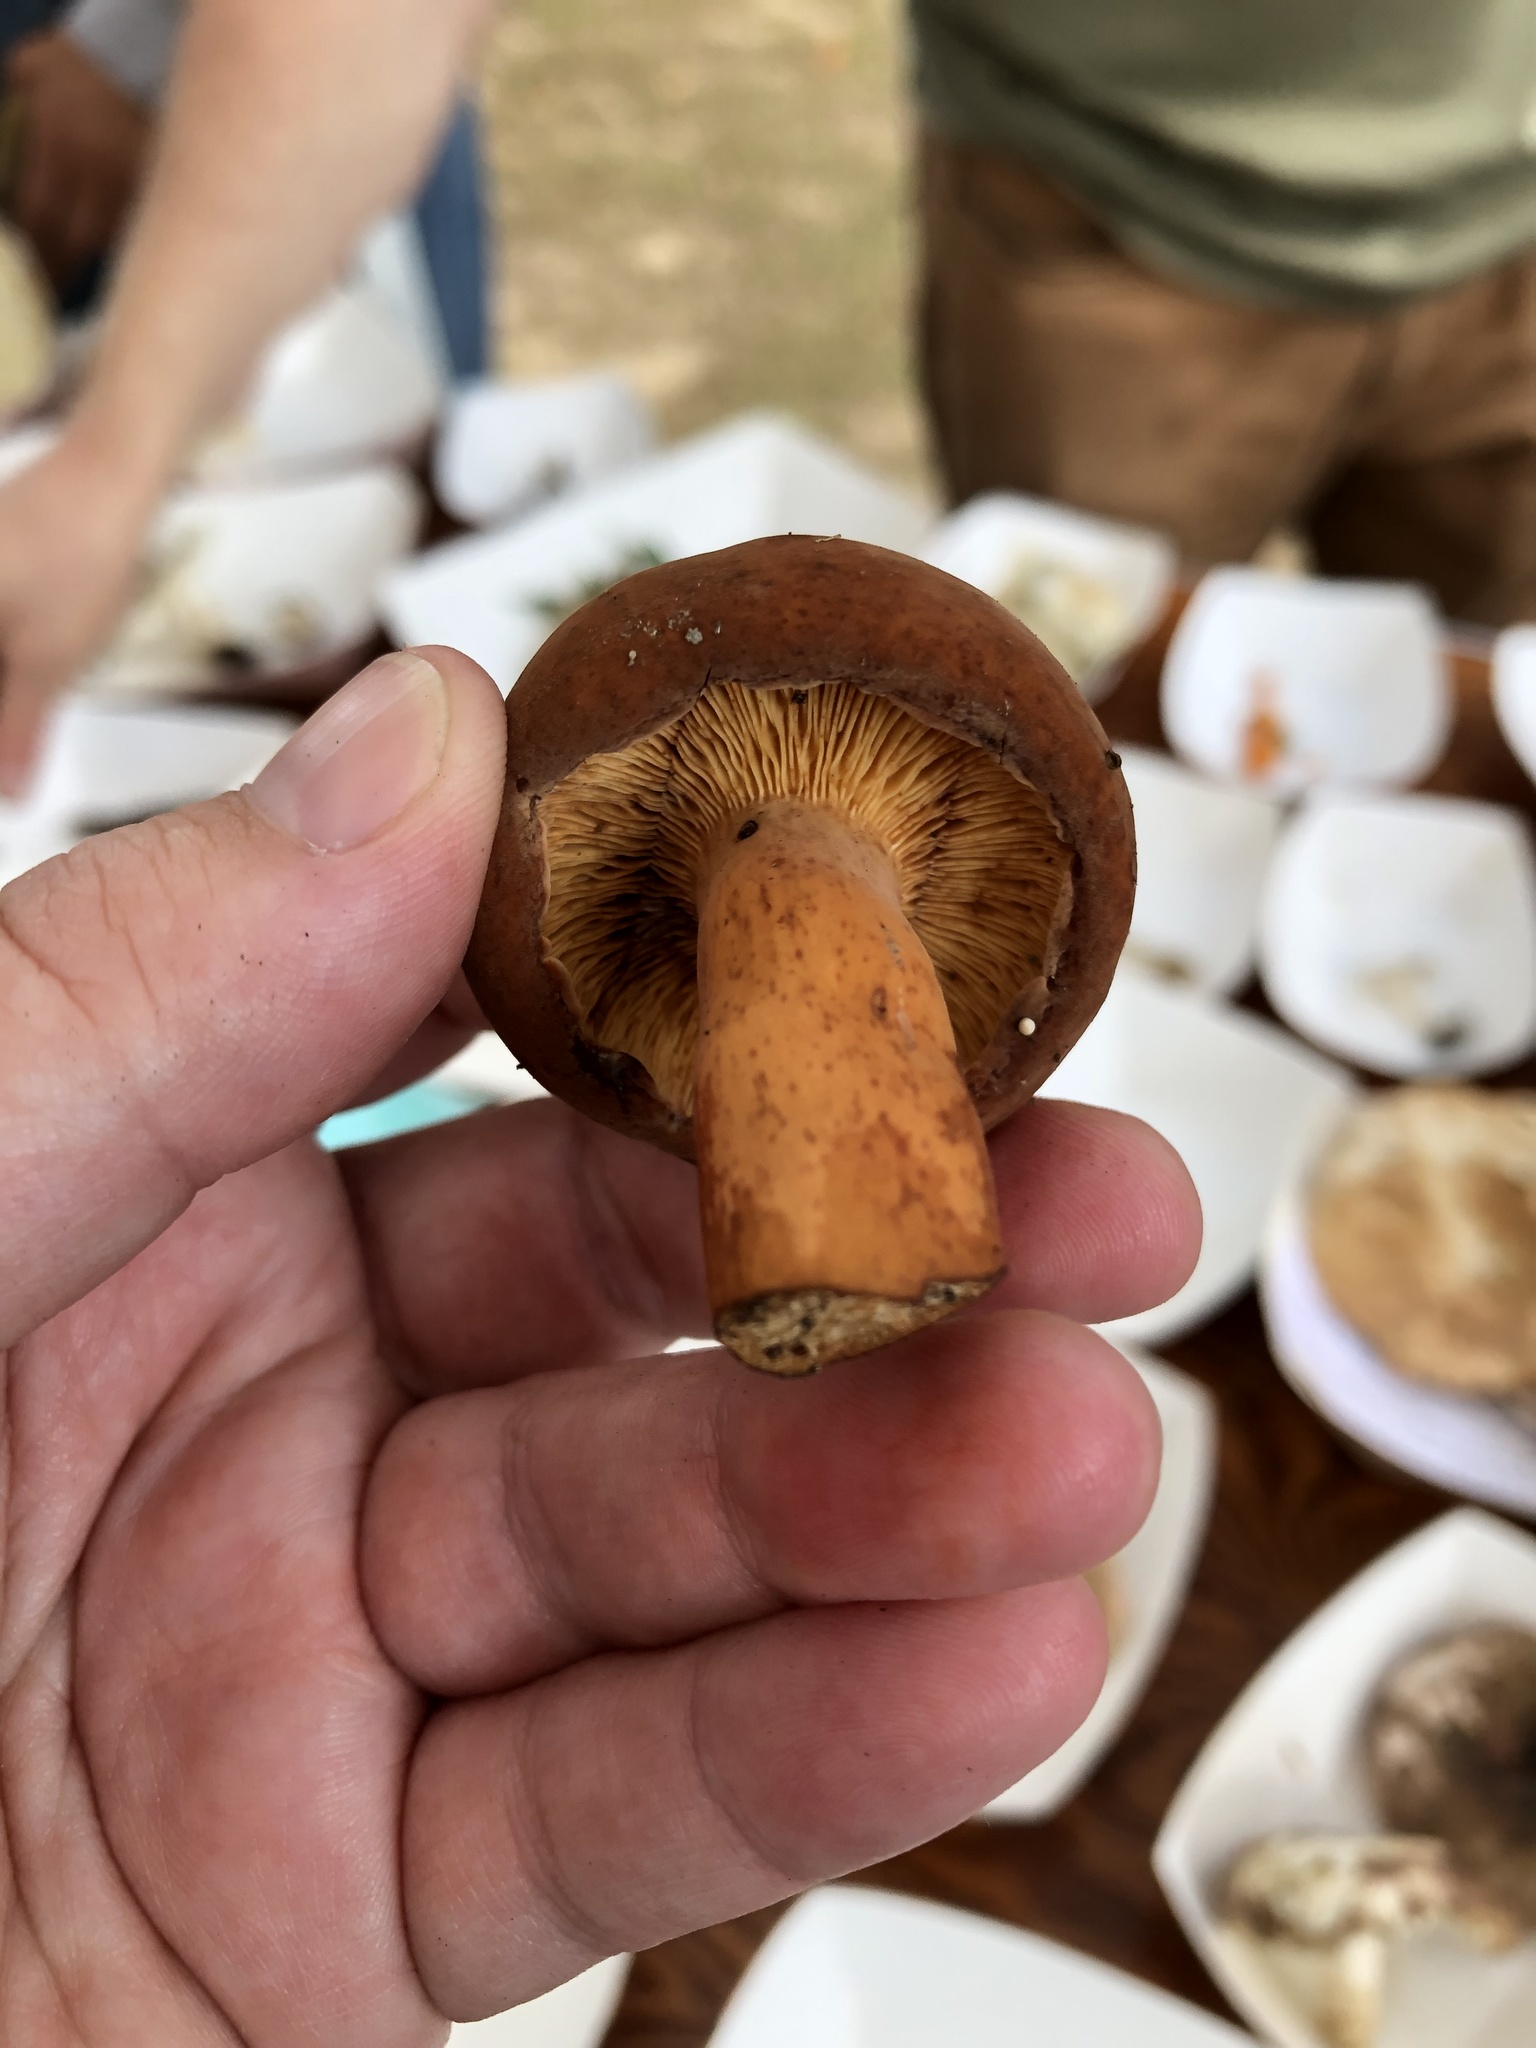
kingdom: Fungi
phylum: Basidiomycota
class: Agaricomycetes
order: Russulales
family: Russulaceae
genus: Lactifluus
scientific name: Lactifluus volemus
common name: Fishy milkcap
